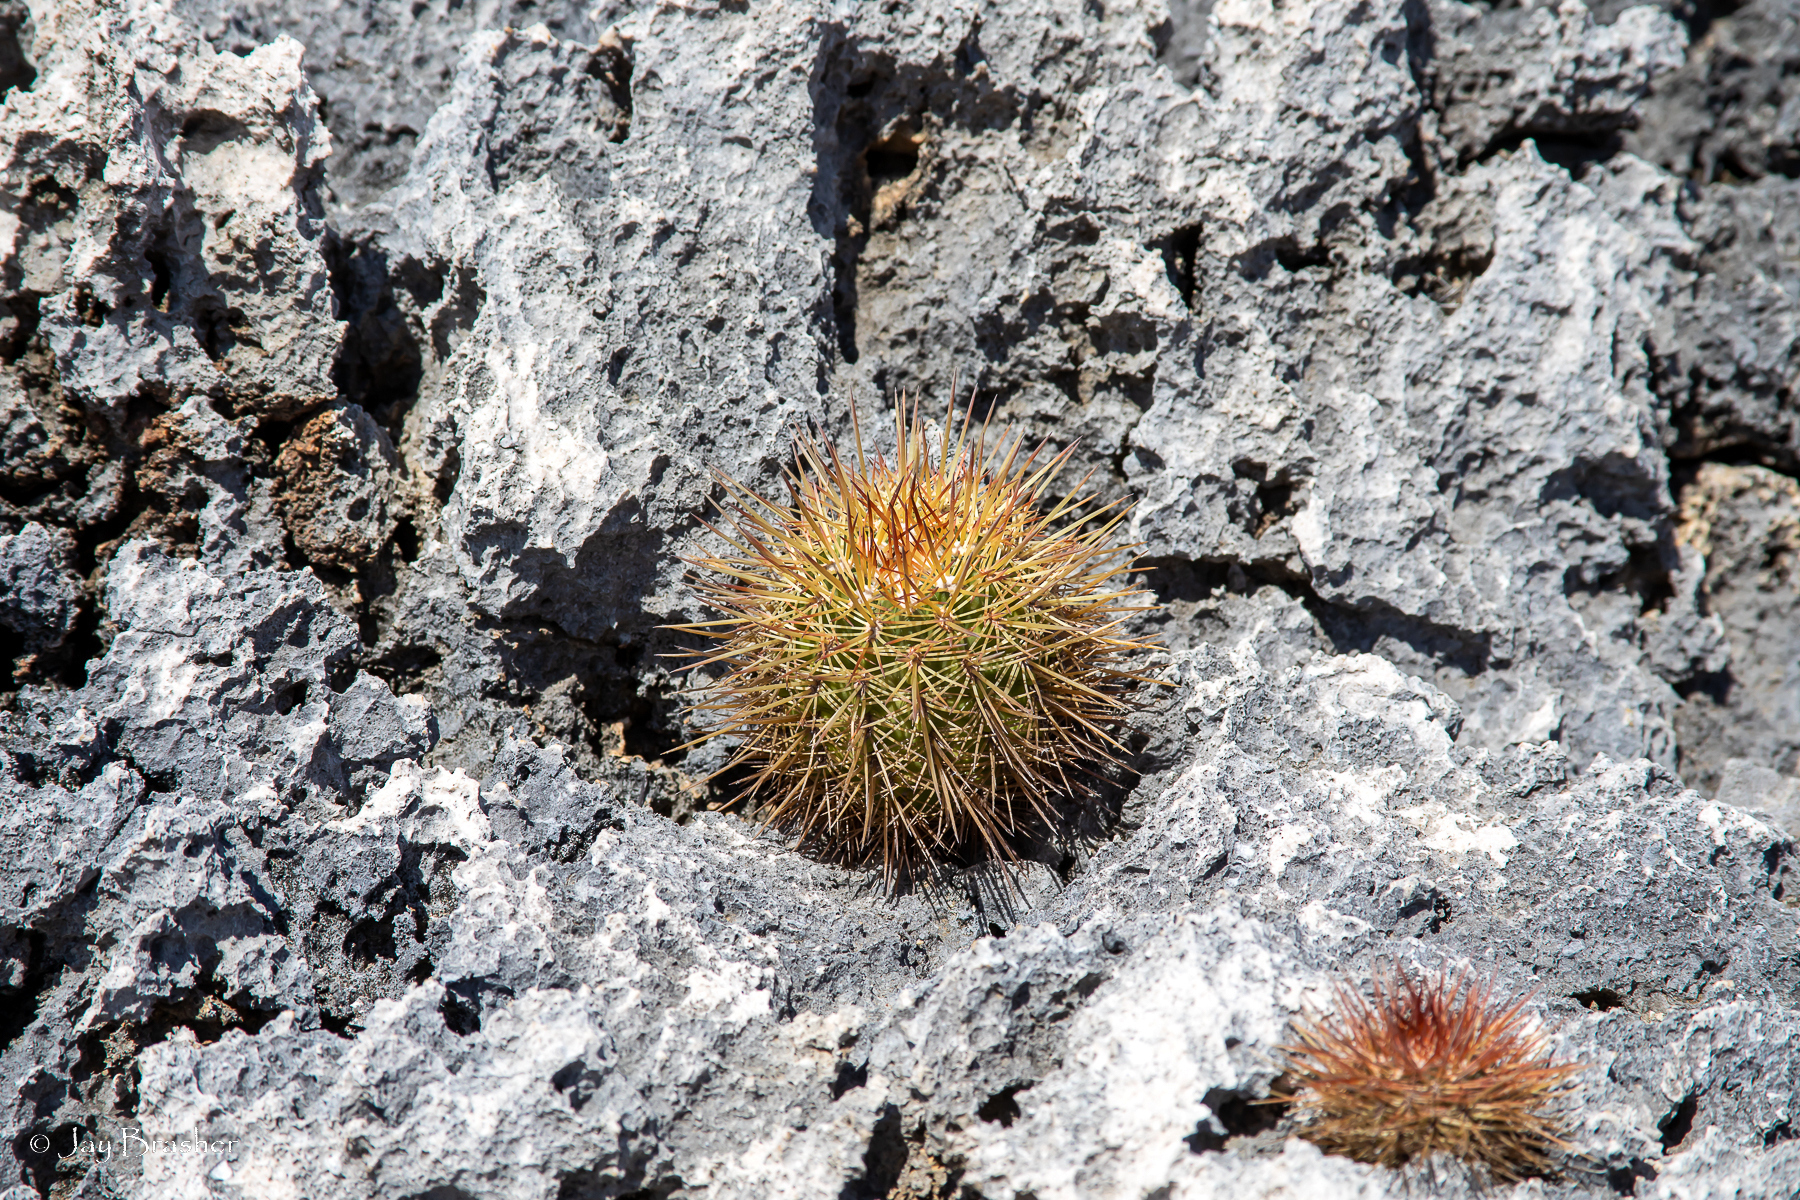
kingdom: Plantae
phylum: Tracheophyta
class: Magnoliopsida
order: Caryophyllales
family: Cactaceae
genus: Melocactus
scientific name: Melocactus macracanthos
